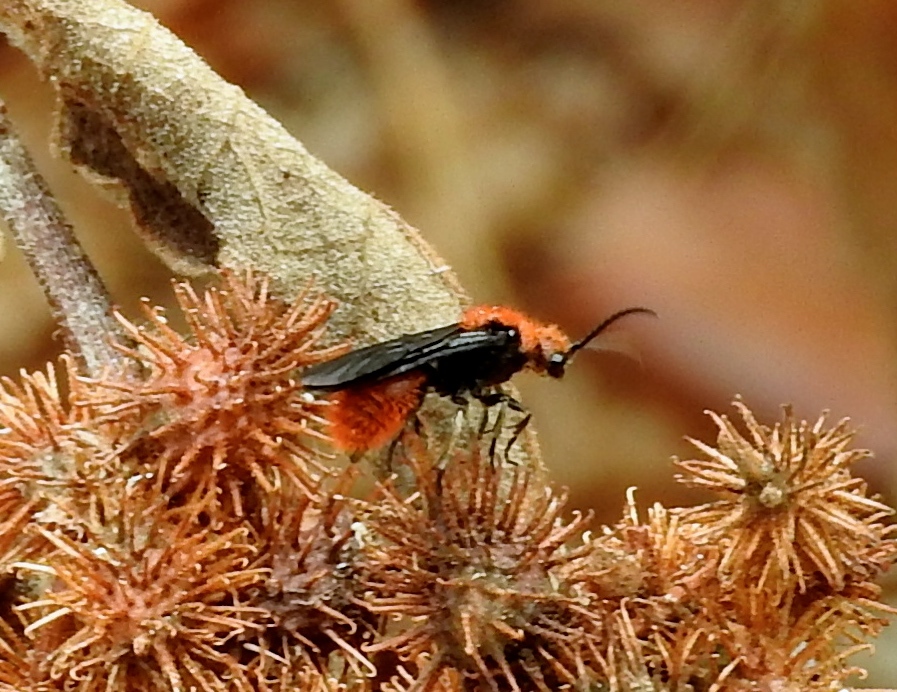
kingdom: Animalia
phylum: Arthropoda
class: Insecta
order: Hymenoptera
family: Mutillidae
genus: Dasymutilla
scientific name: Dasymutilla
